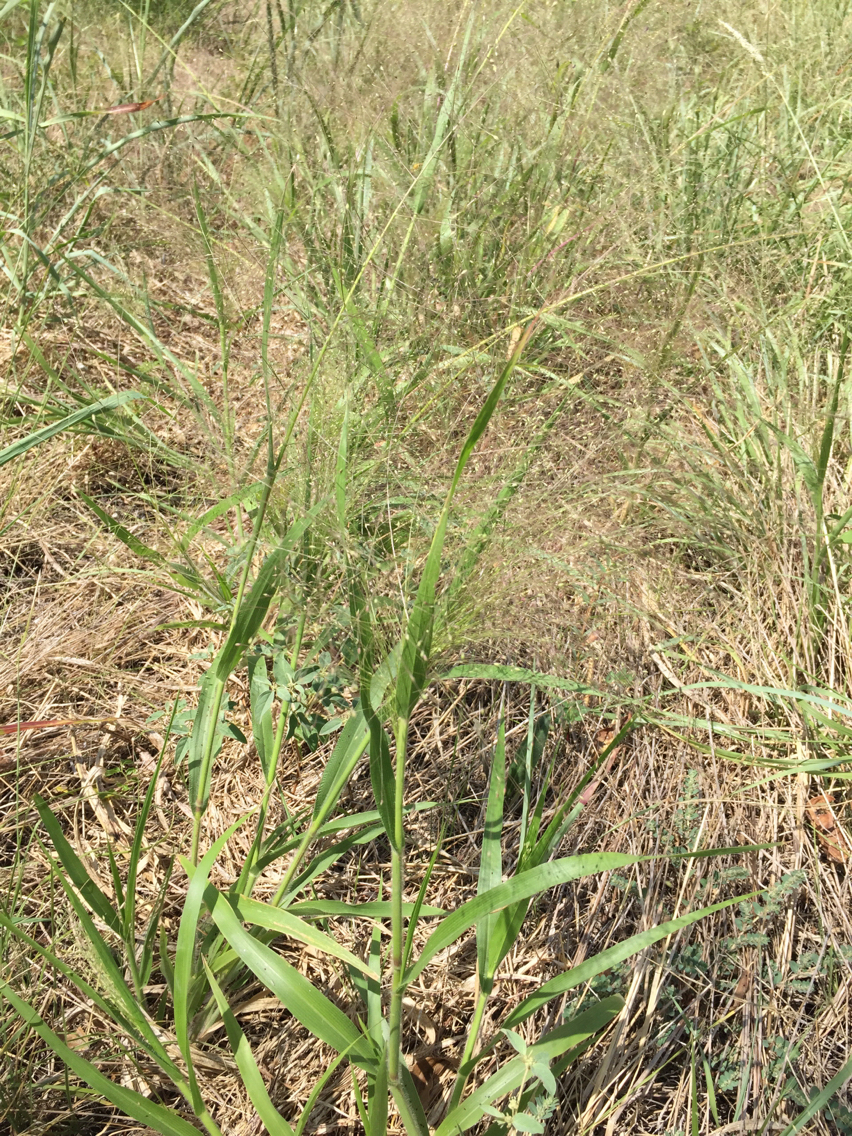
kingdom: Plantae
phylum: Tracheophyta
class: Liliopsida
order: Poales
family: Poaceae
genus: Panicum
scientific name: Panicum capillare
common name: Witch-grass
